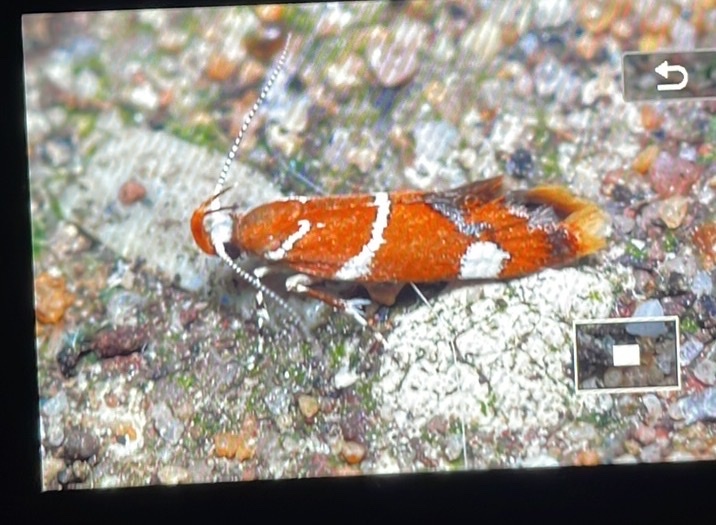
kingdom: Animalia
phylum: Arthropoda
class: Insecta
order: Lepidoptera
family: Oecophoridae
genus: Promalactis
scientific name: Promalactis suzukiella
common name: Moth
